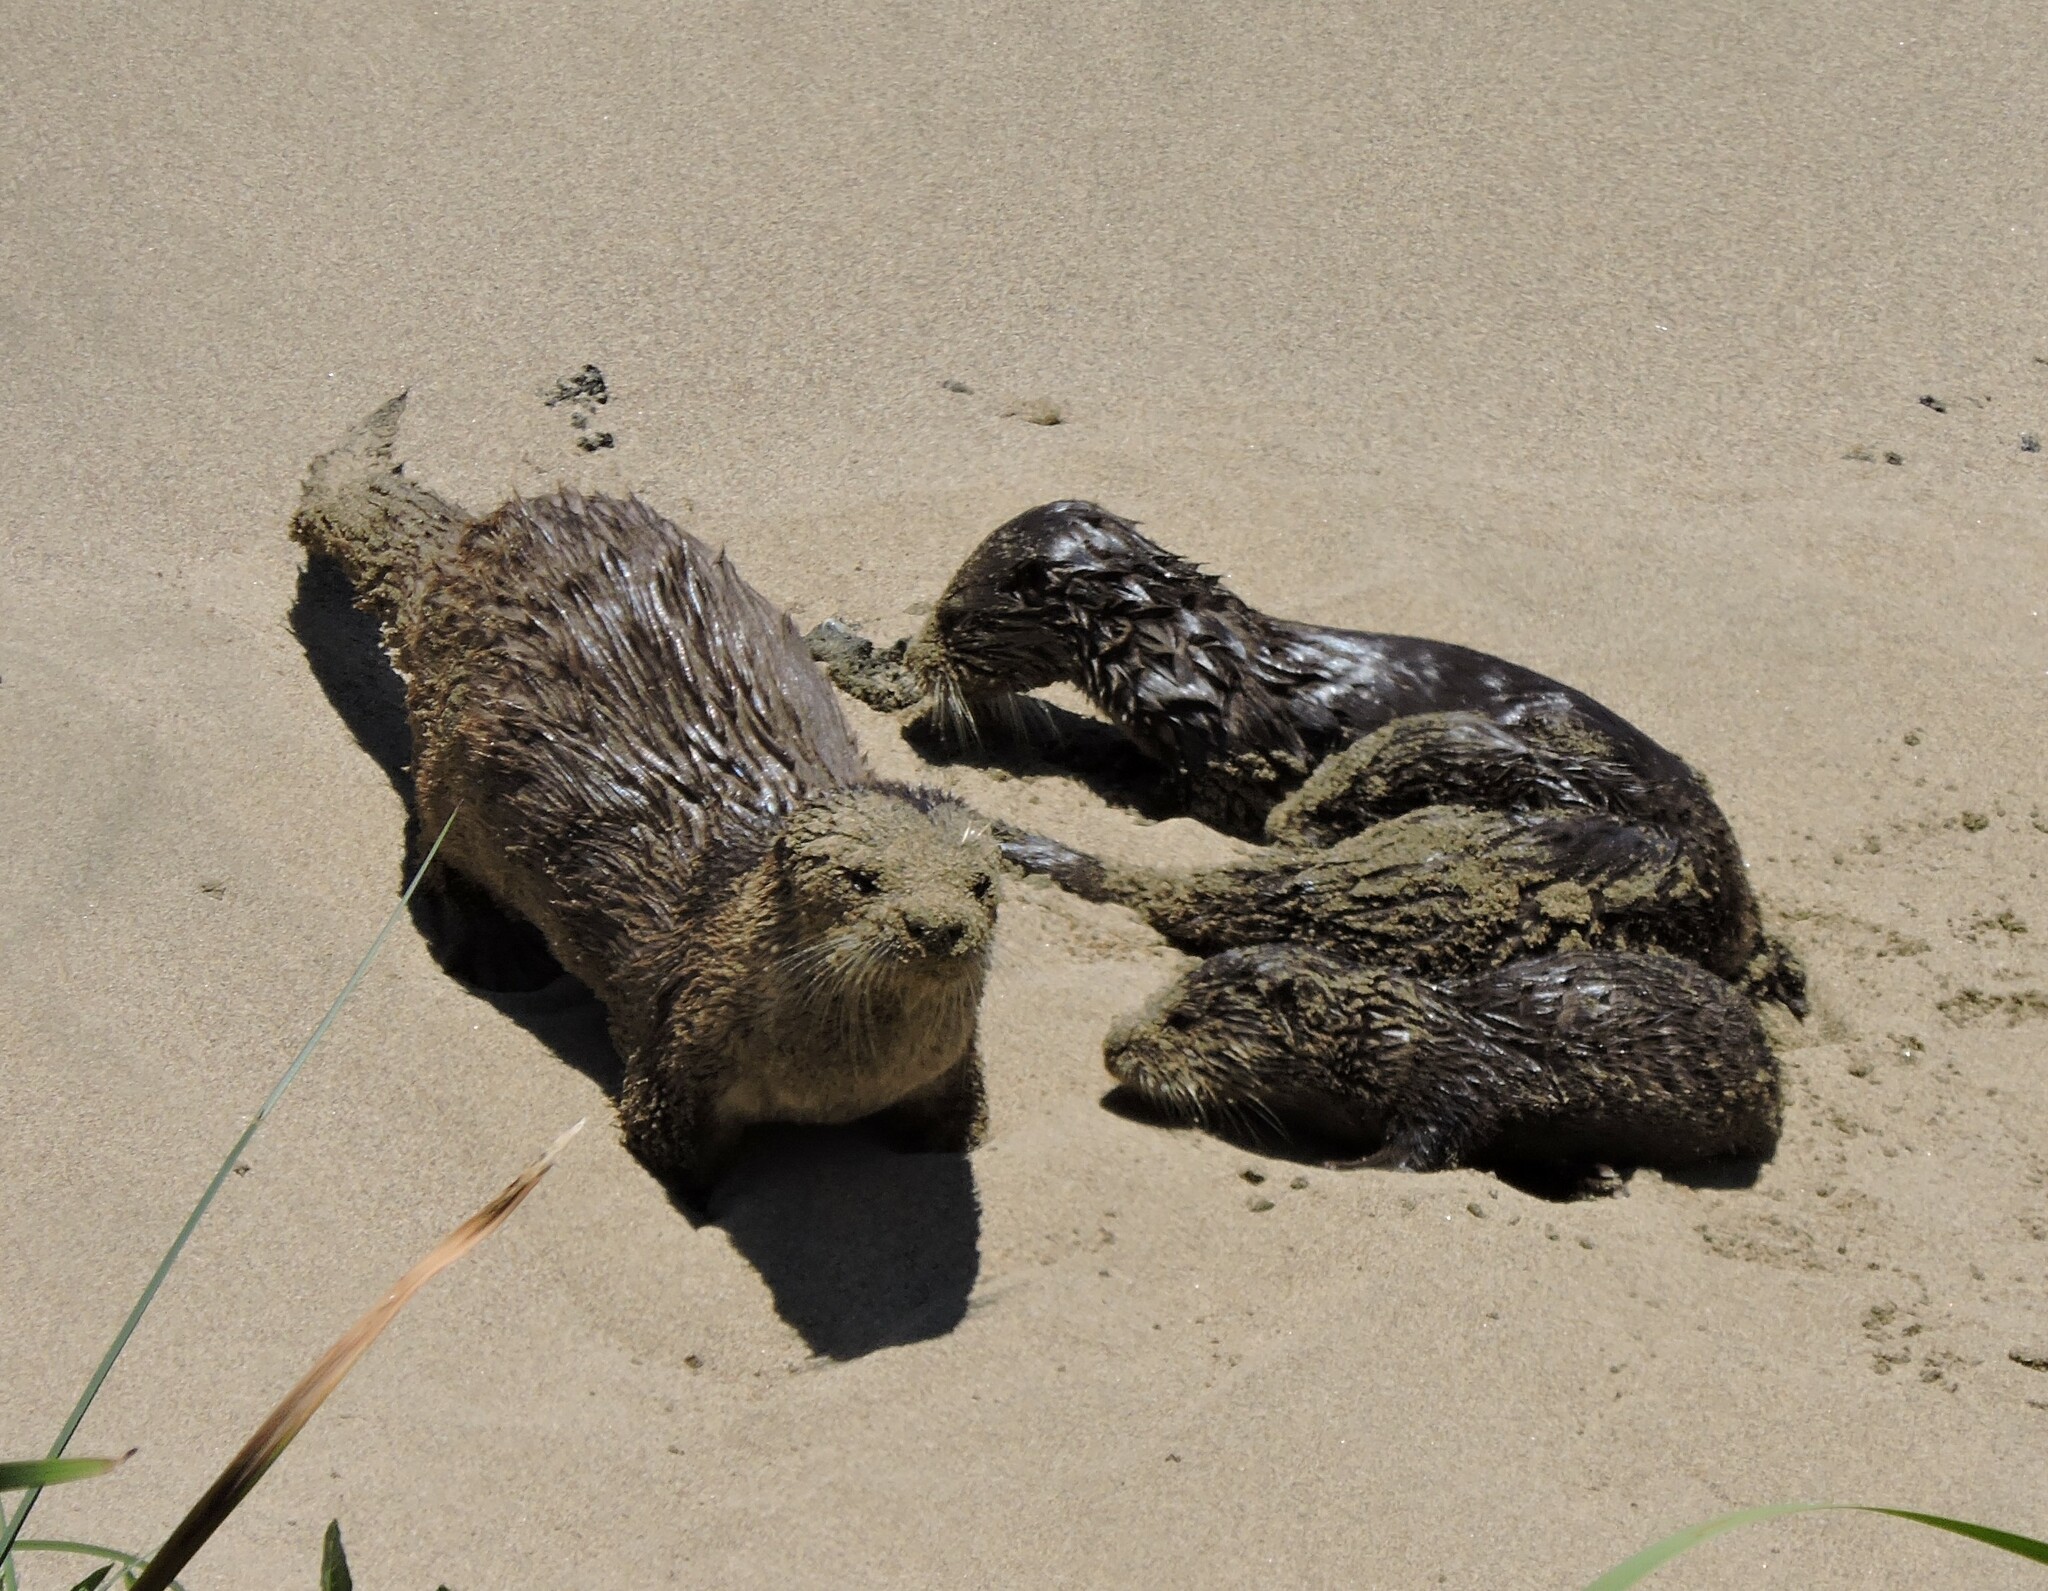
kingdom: Animalia
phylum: Chordata
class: Mammalia
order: Carnivora
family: Mustelidae
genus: Lontra
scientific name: Lontra canadensis
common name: North american river otter
